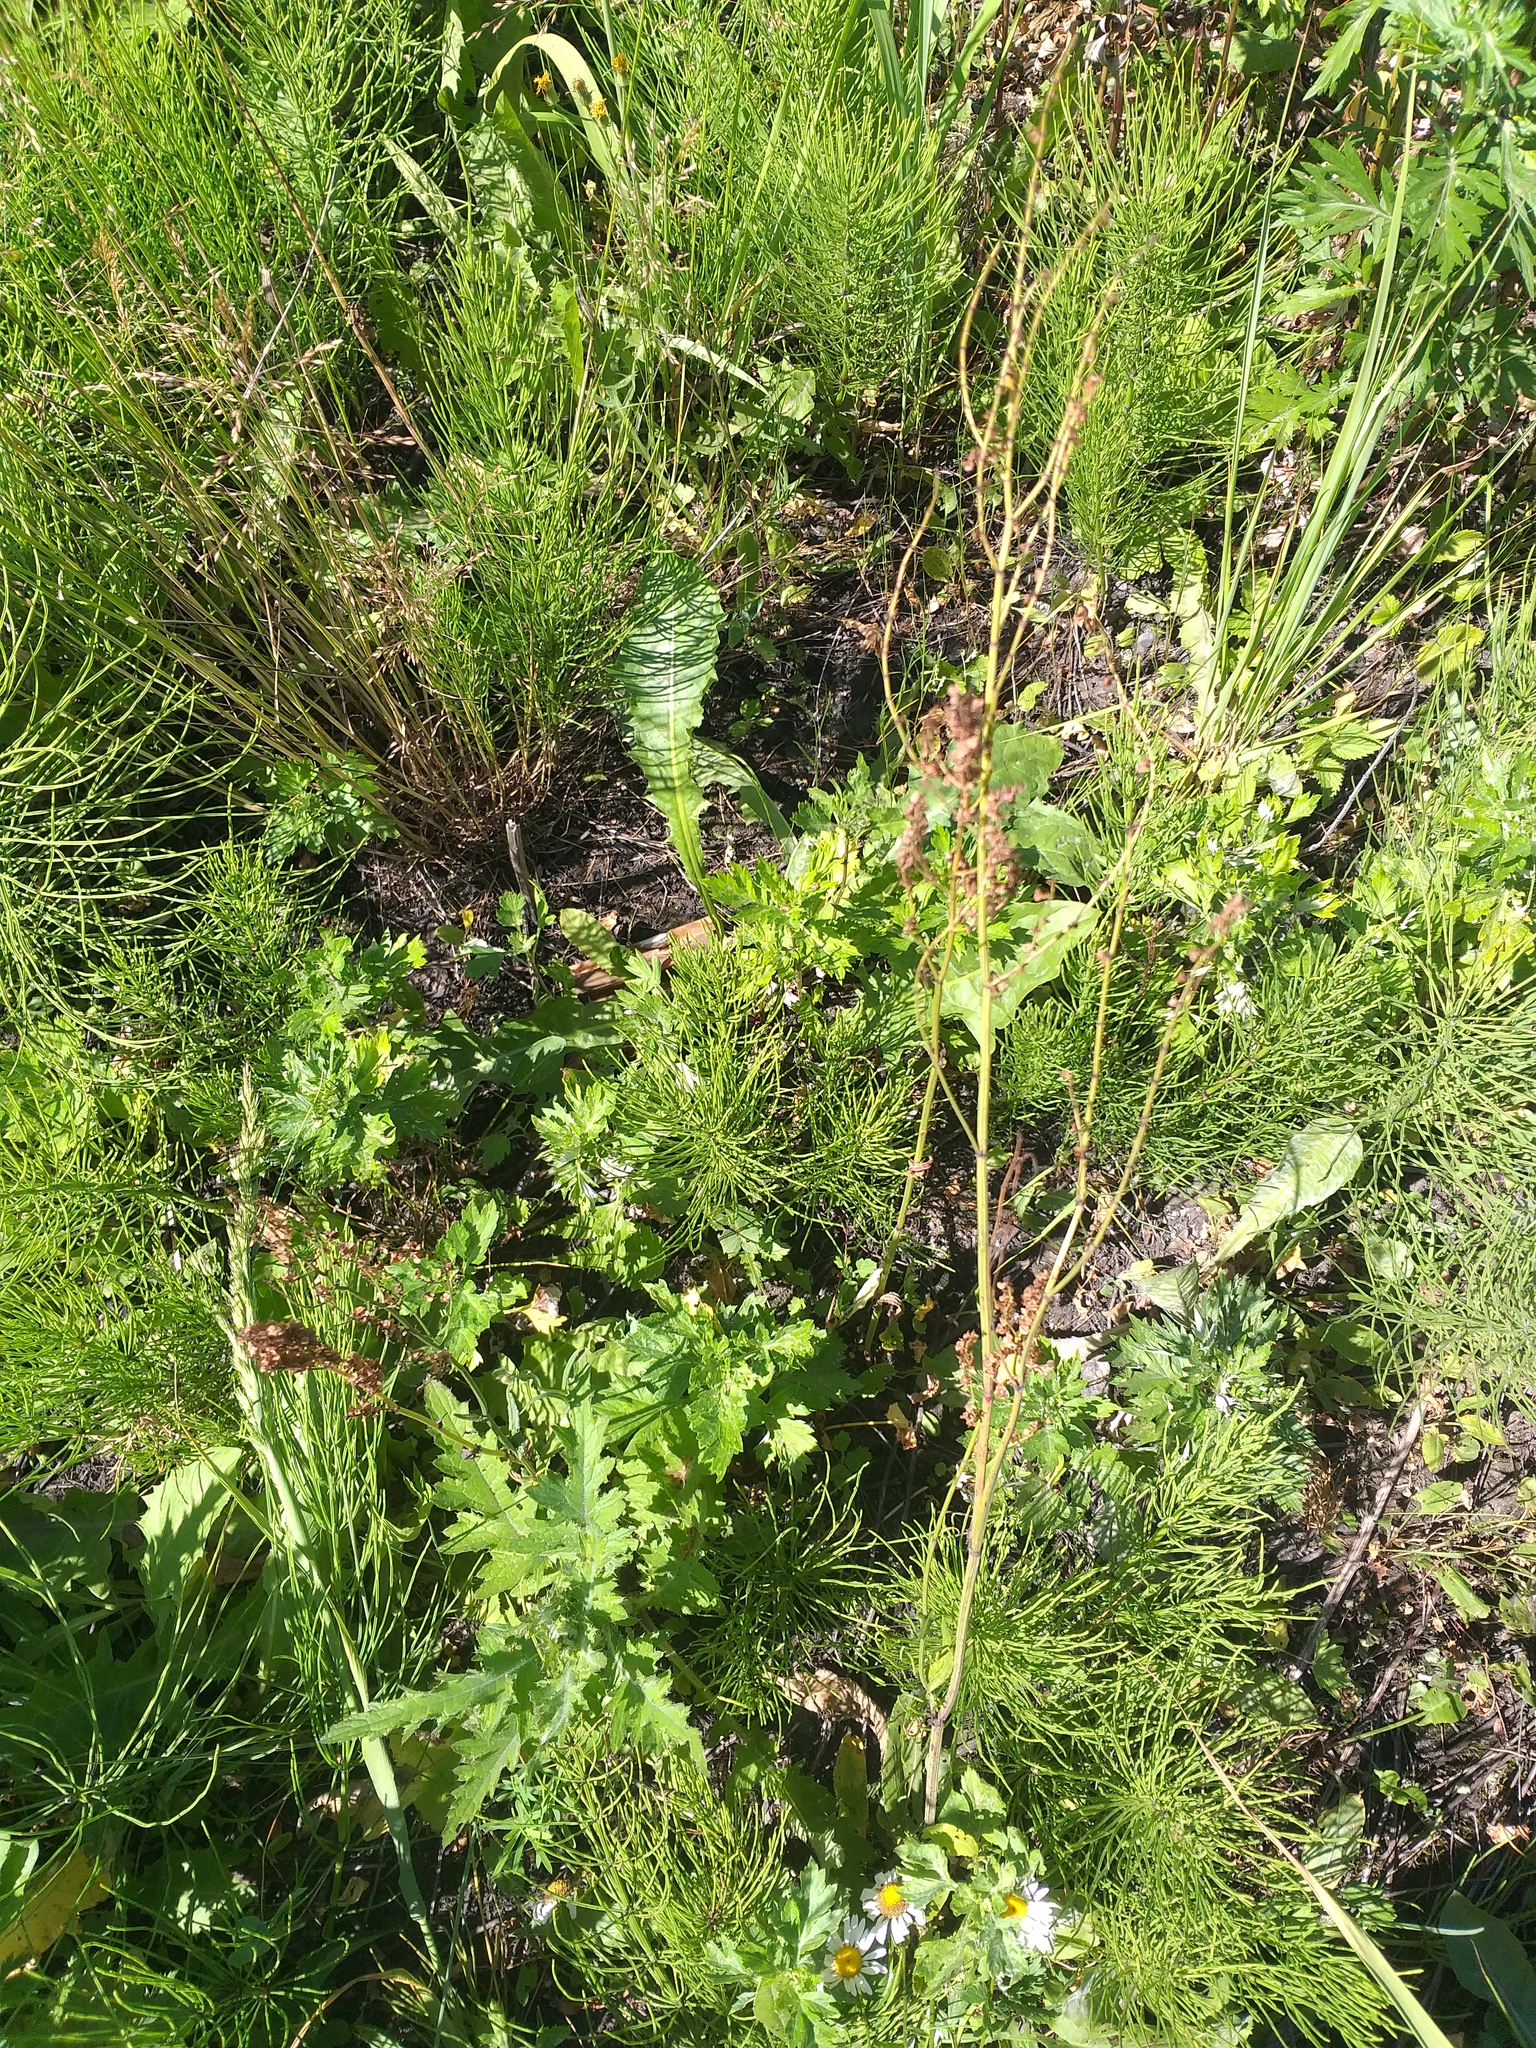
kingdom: Plantae
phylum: Tracheophyta
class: Magnoliopsida
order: Caryophyllales
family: Polygonaceae
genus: Rumex
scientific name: Rumex acetosa
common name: Garden sorrel
